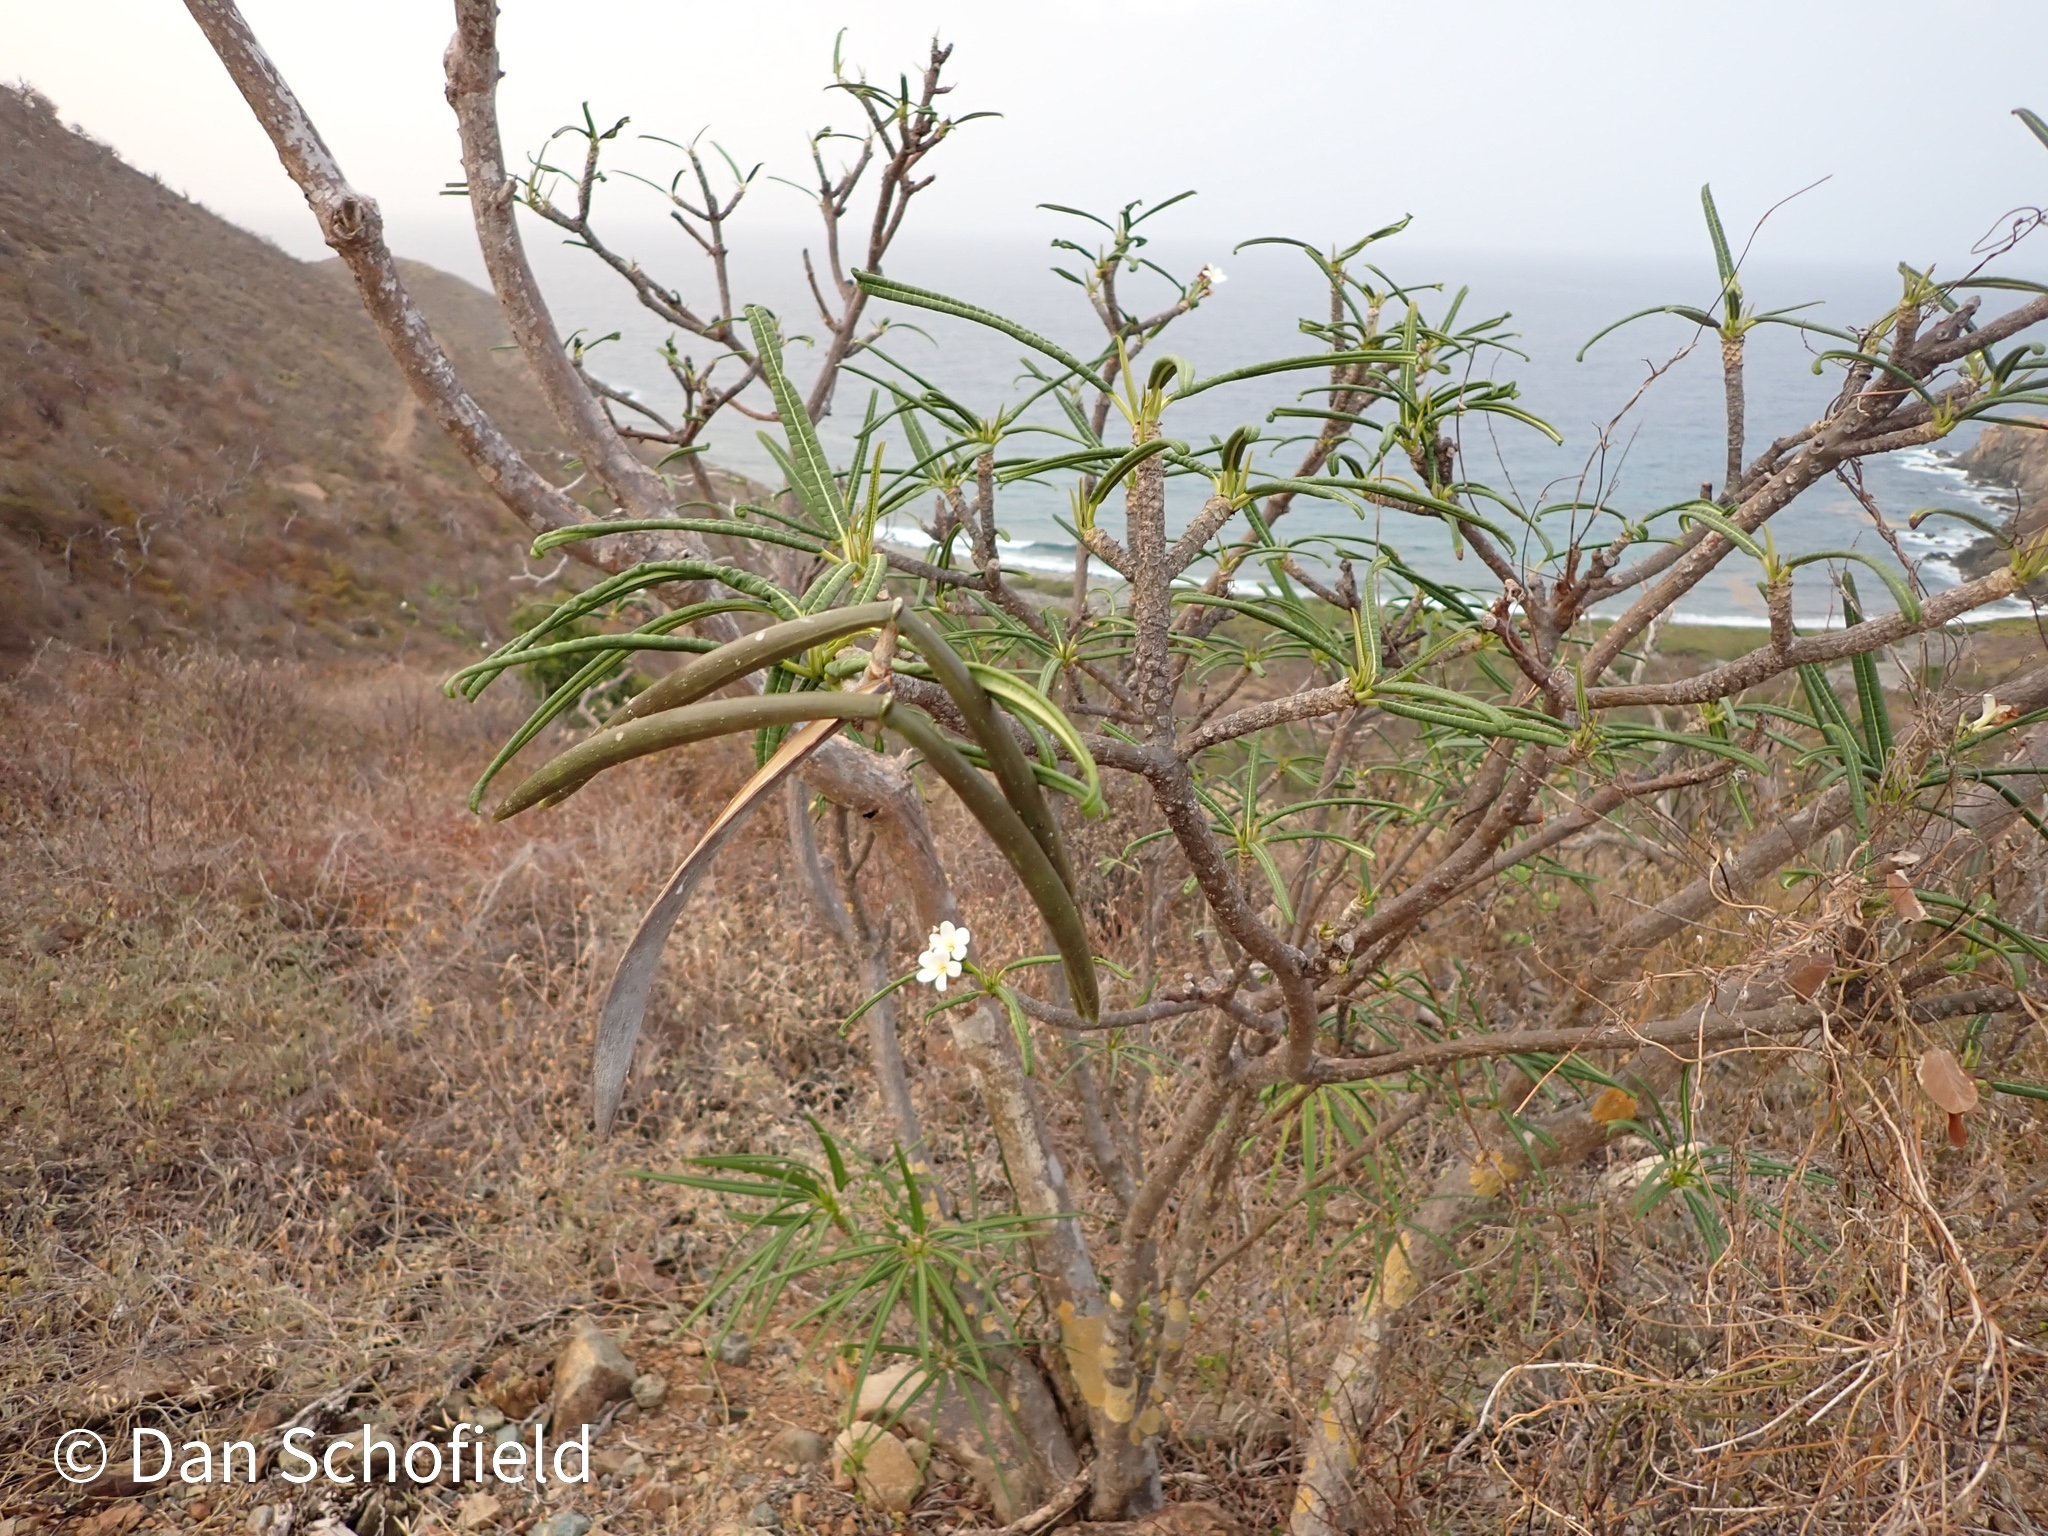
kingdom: Plantae
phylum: Tracheophyta
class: Magnoliopsida
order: Gentianales
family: Apocynaceae
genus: Plumeria
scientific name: Plumeria alba
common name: Wild frangipani
